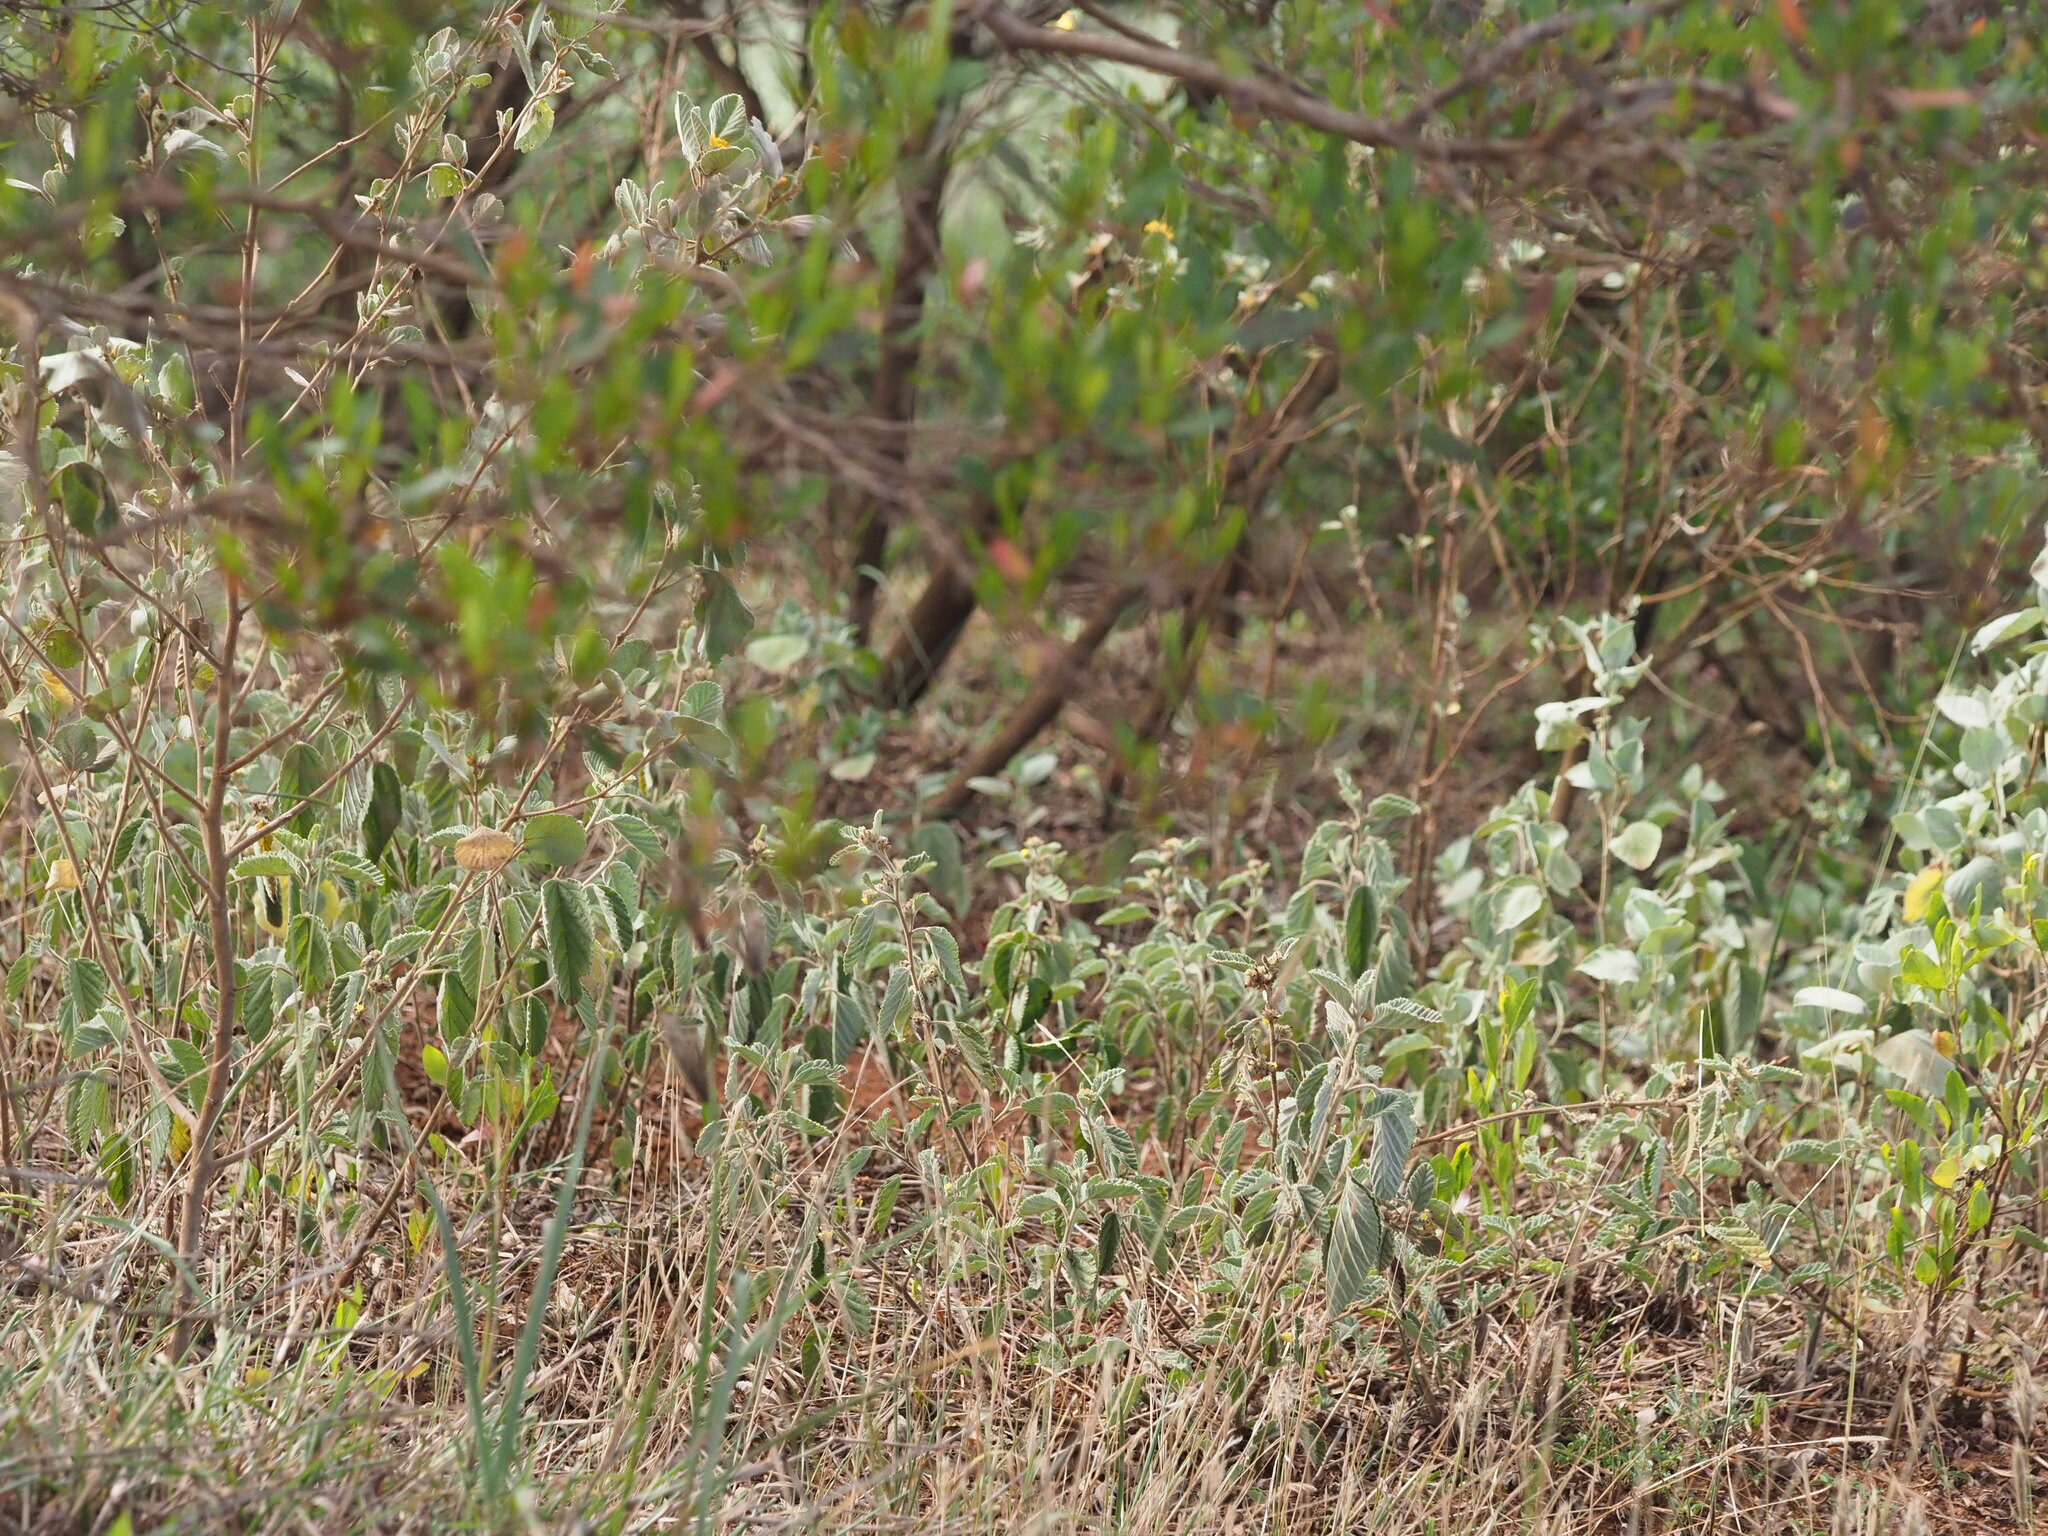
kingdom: Plantae
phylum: Tracheophyta
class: Magnoliopsida
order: Malvales
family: Malvaceae
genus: Waltheria
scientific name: Waltheria indica
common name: Leather-coat
